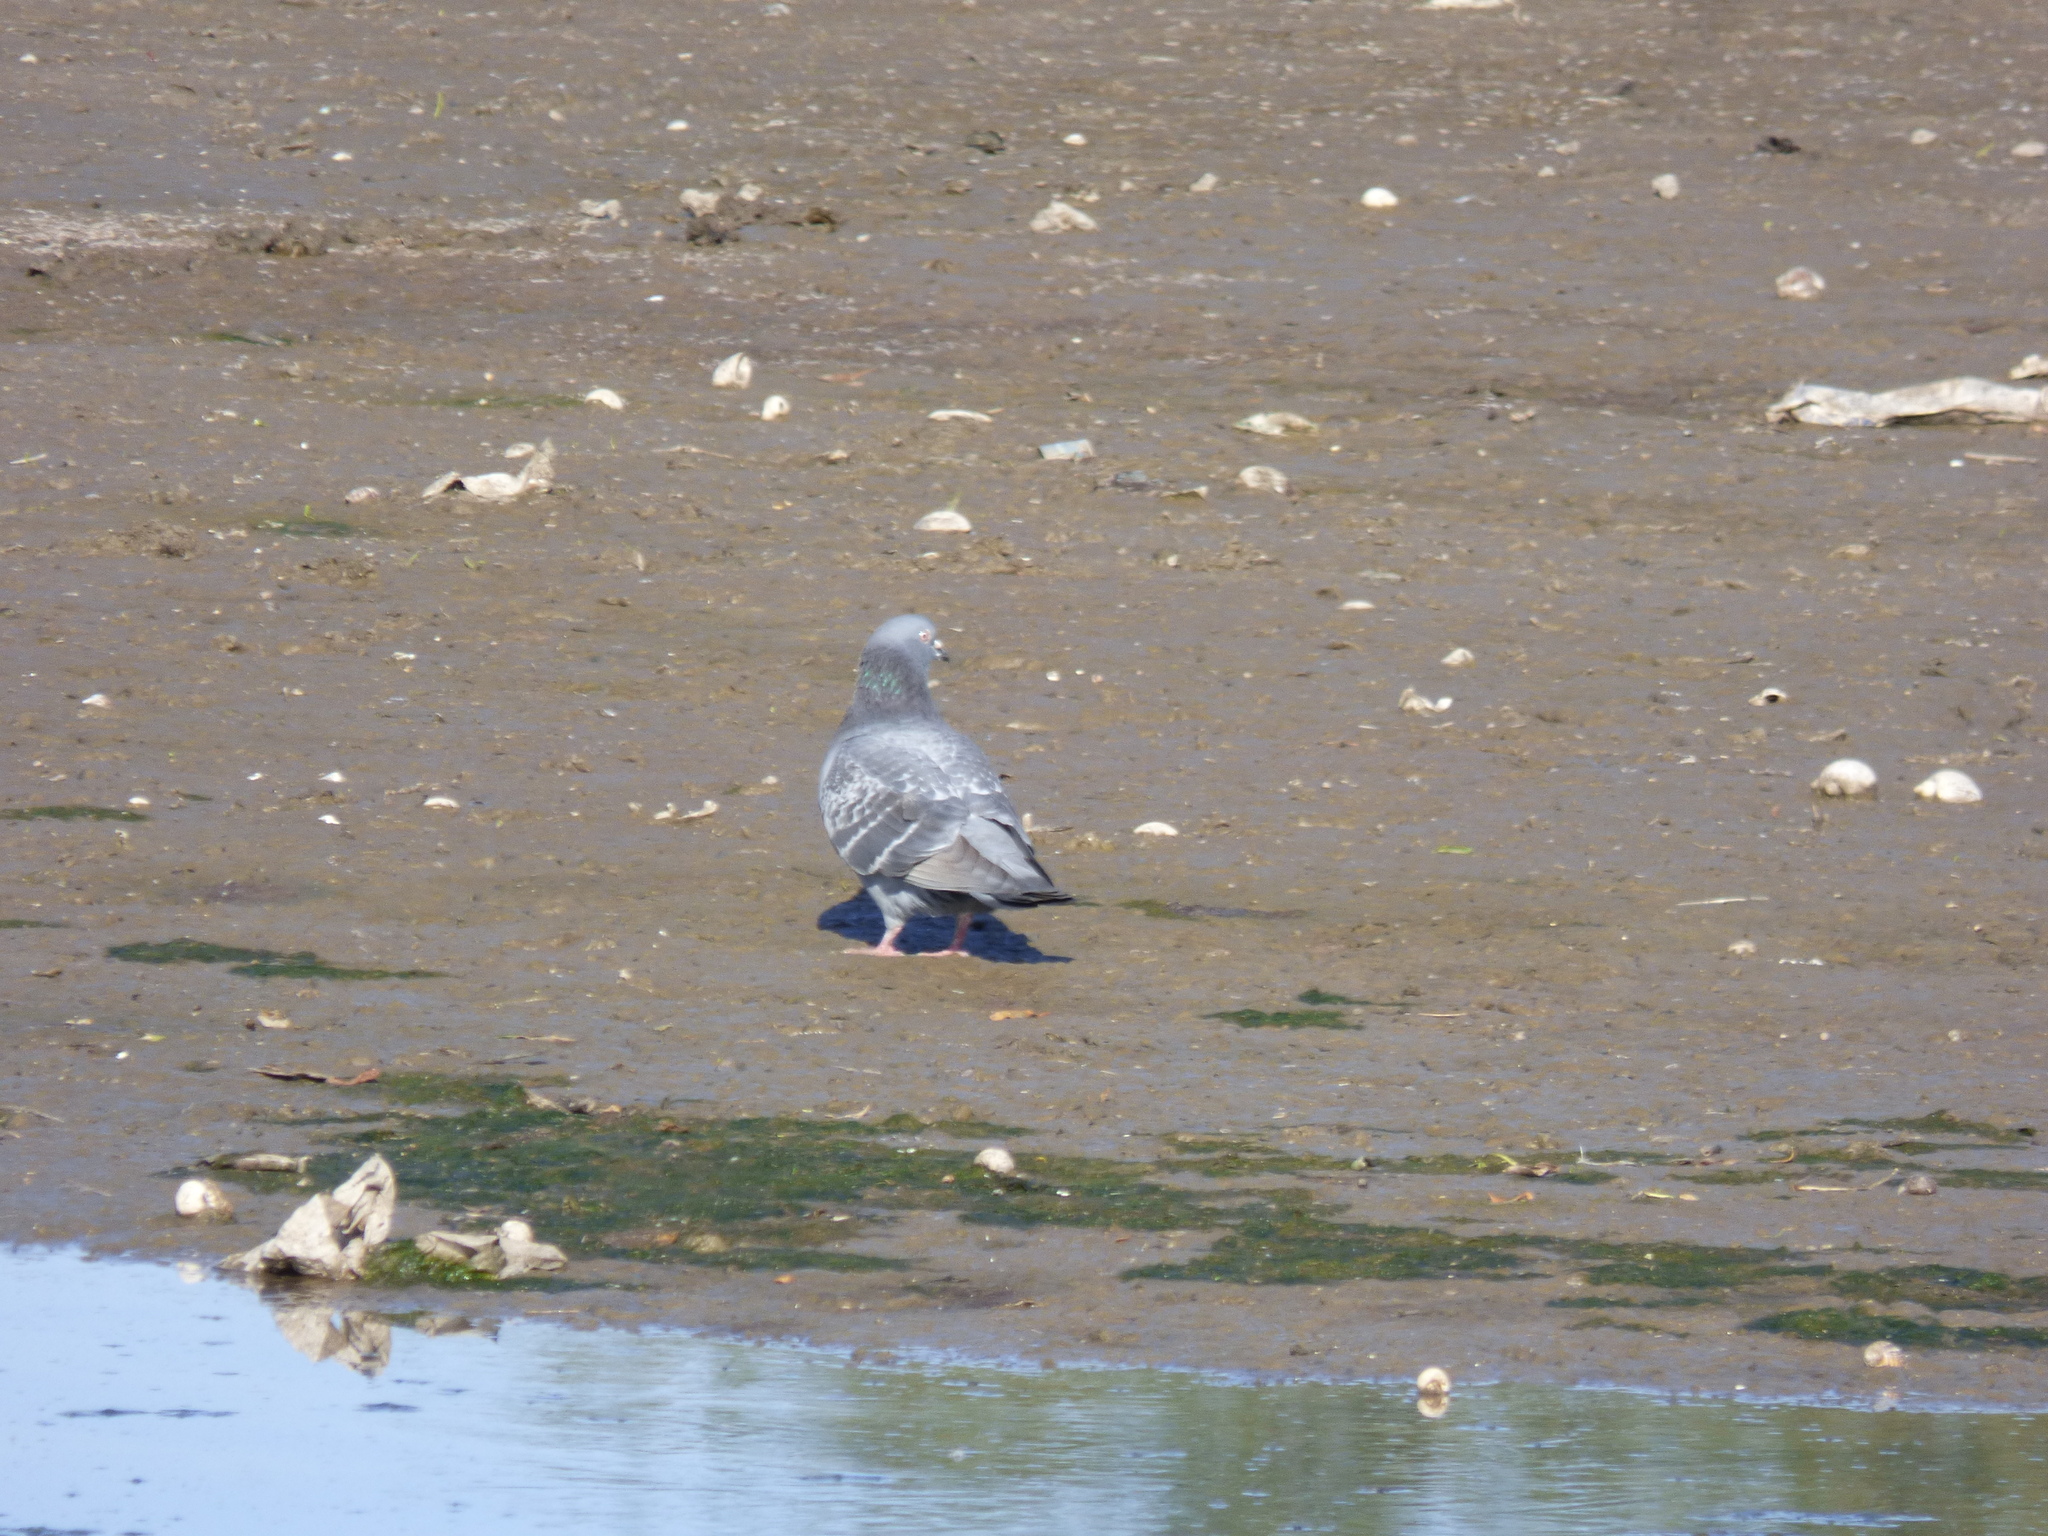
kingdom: Animalia
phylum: Chordata
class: Aves
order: Columbiformes
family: Columbidae
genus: Columba
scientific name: Columba livia
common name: Rock pigeon
